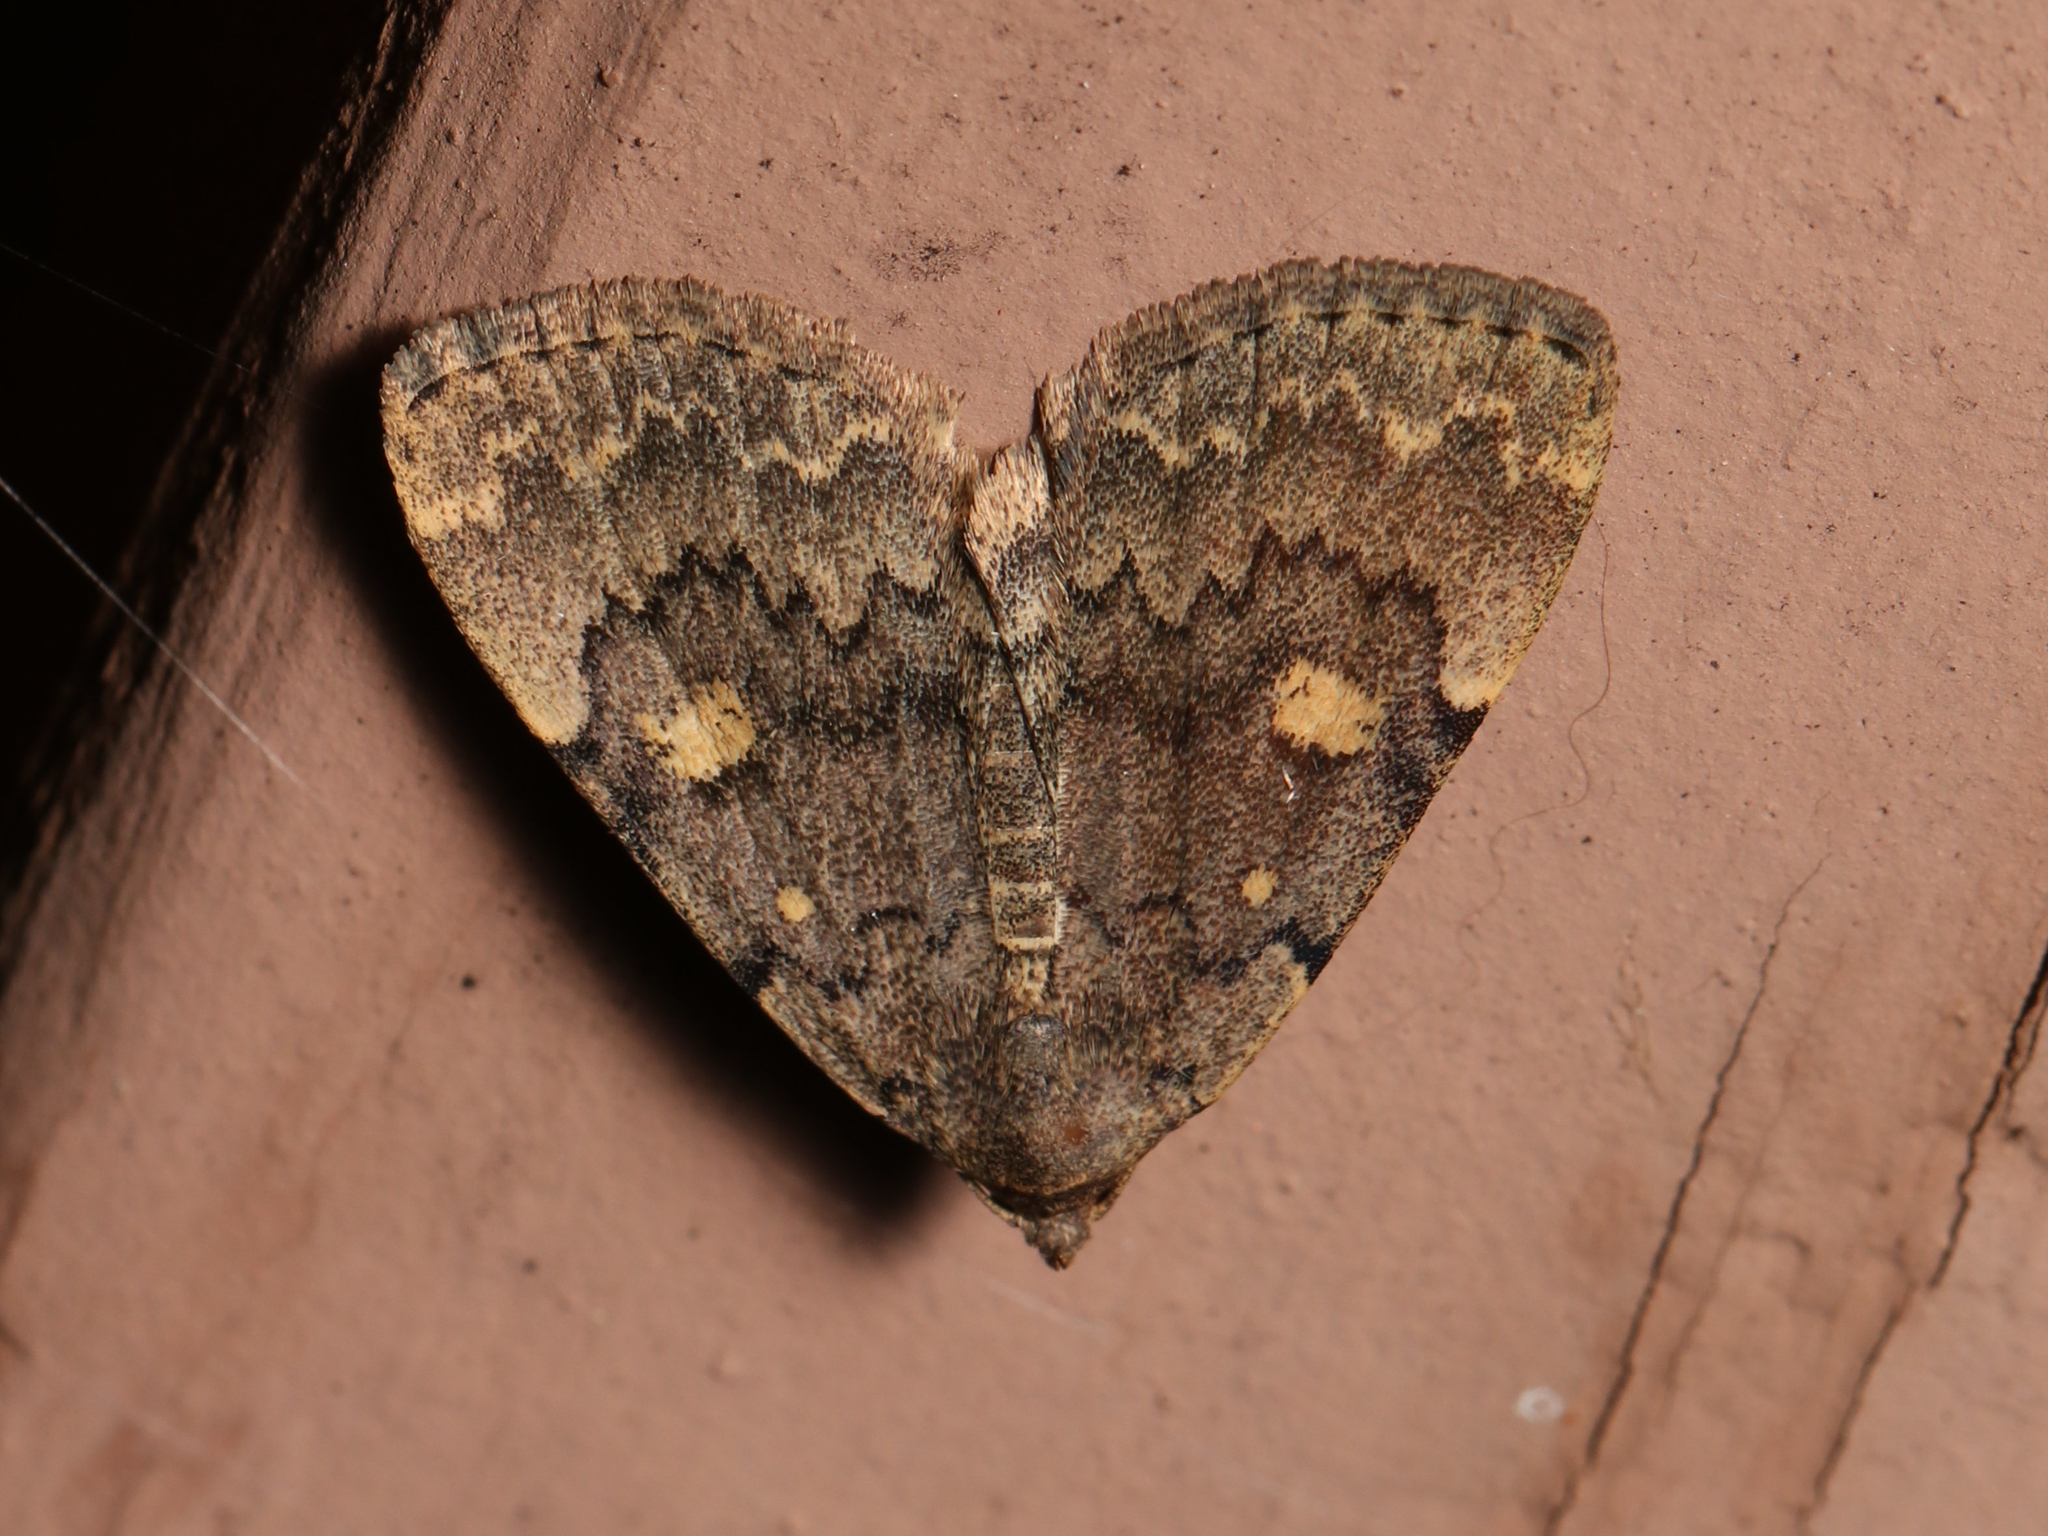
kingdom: Animalia
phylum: Arthropoda
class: Insecta
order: Lepidoptera
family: Erebidae
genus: Idia
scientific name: Idia aemula
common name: Common idia moth
